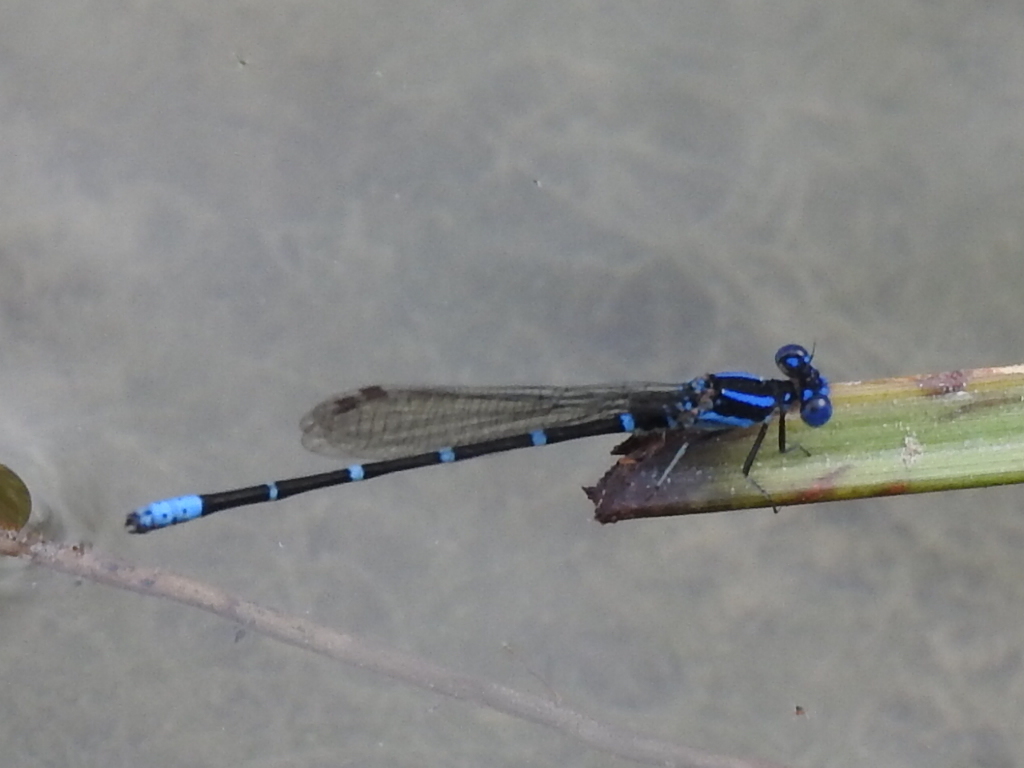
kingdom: Animalia
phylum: Arthropoda
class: Insecta
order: Odonata
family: Coenagrionidae
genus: Argia
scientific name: Argia sedula
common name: Blue-ringed dancer
